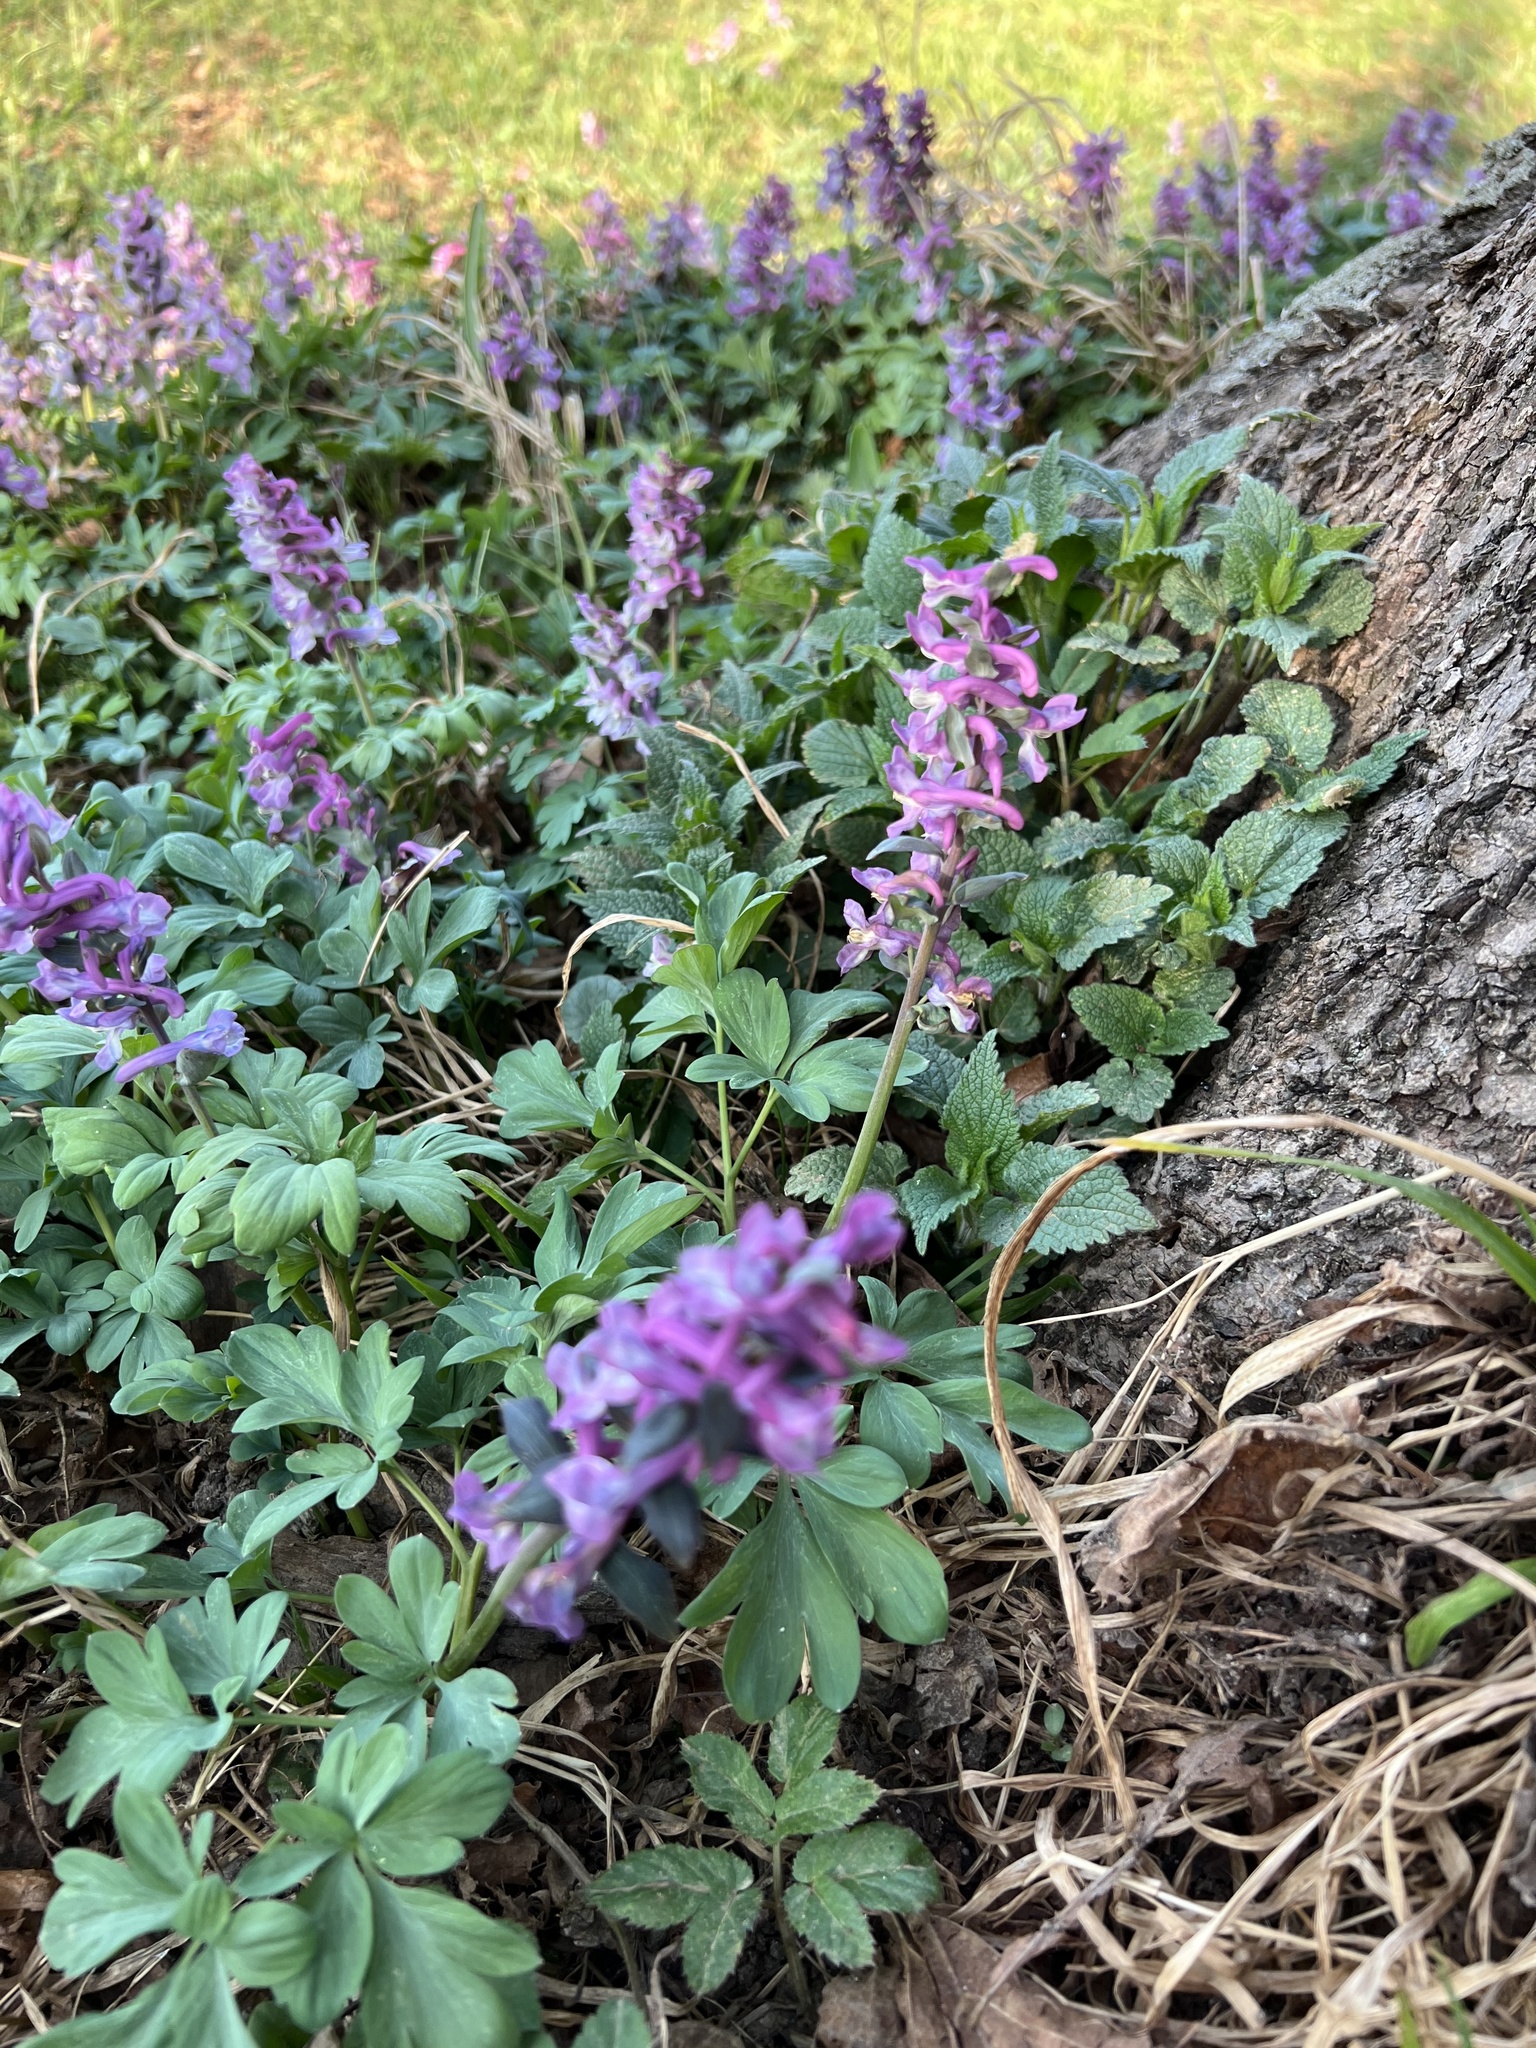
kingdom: Plantae
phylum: Tracheophyta
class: Magnoliopsida
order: Ranunculales
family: Papaveraceae
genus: Corydalis
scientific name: Corydalis cava
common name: Hollowroot
